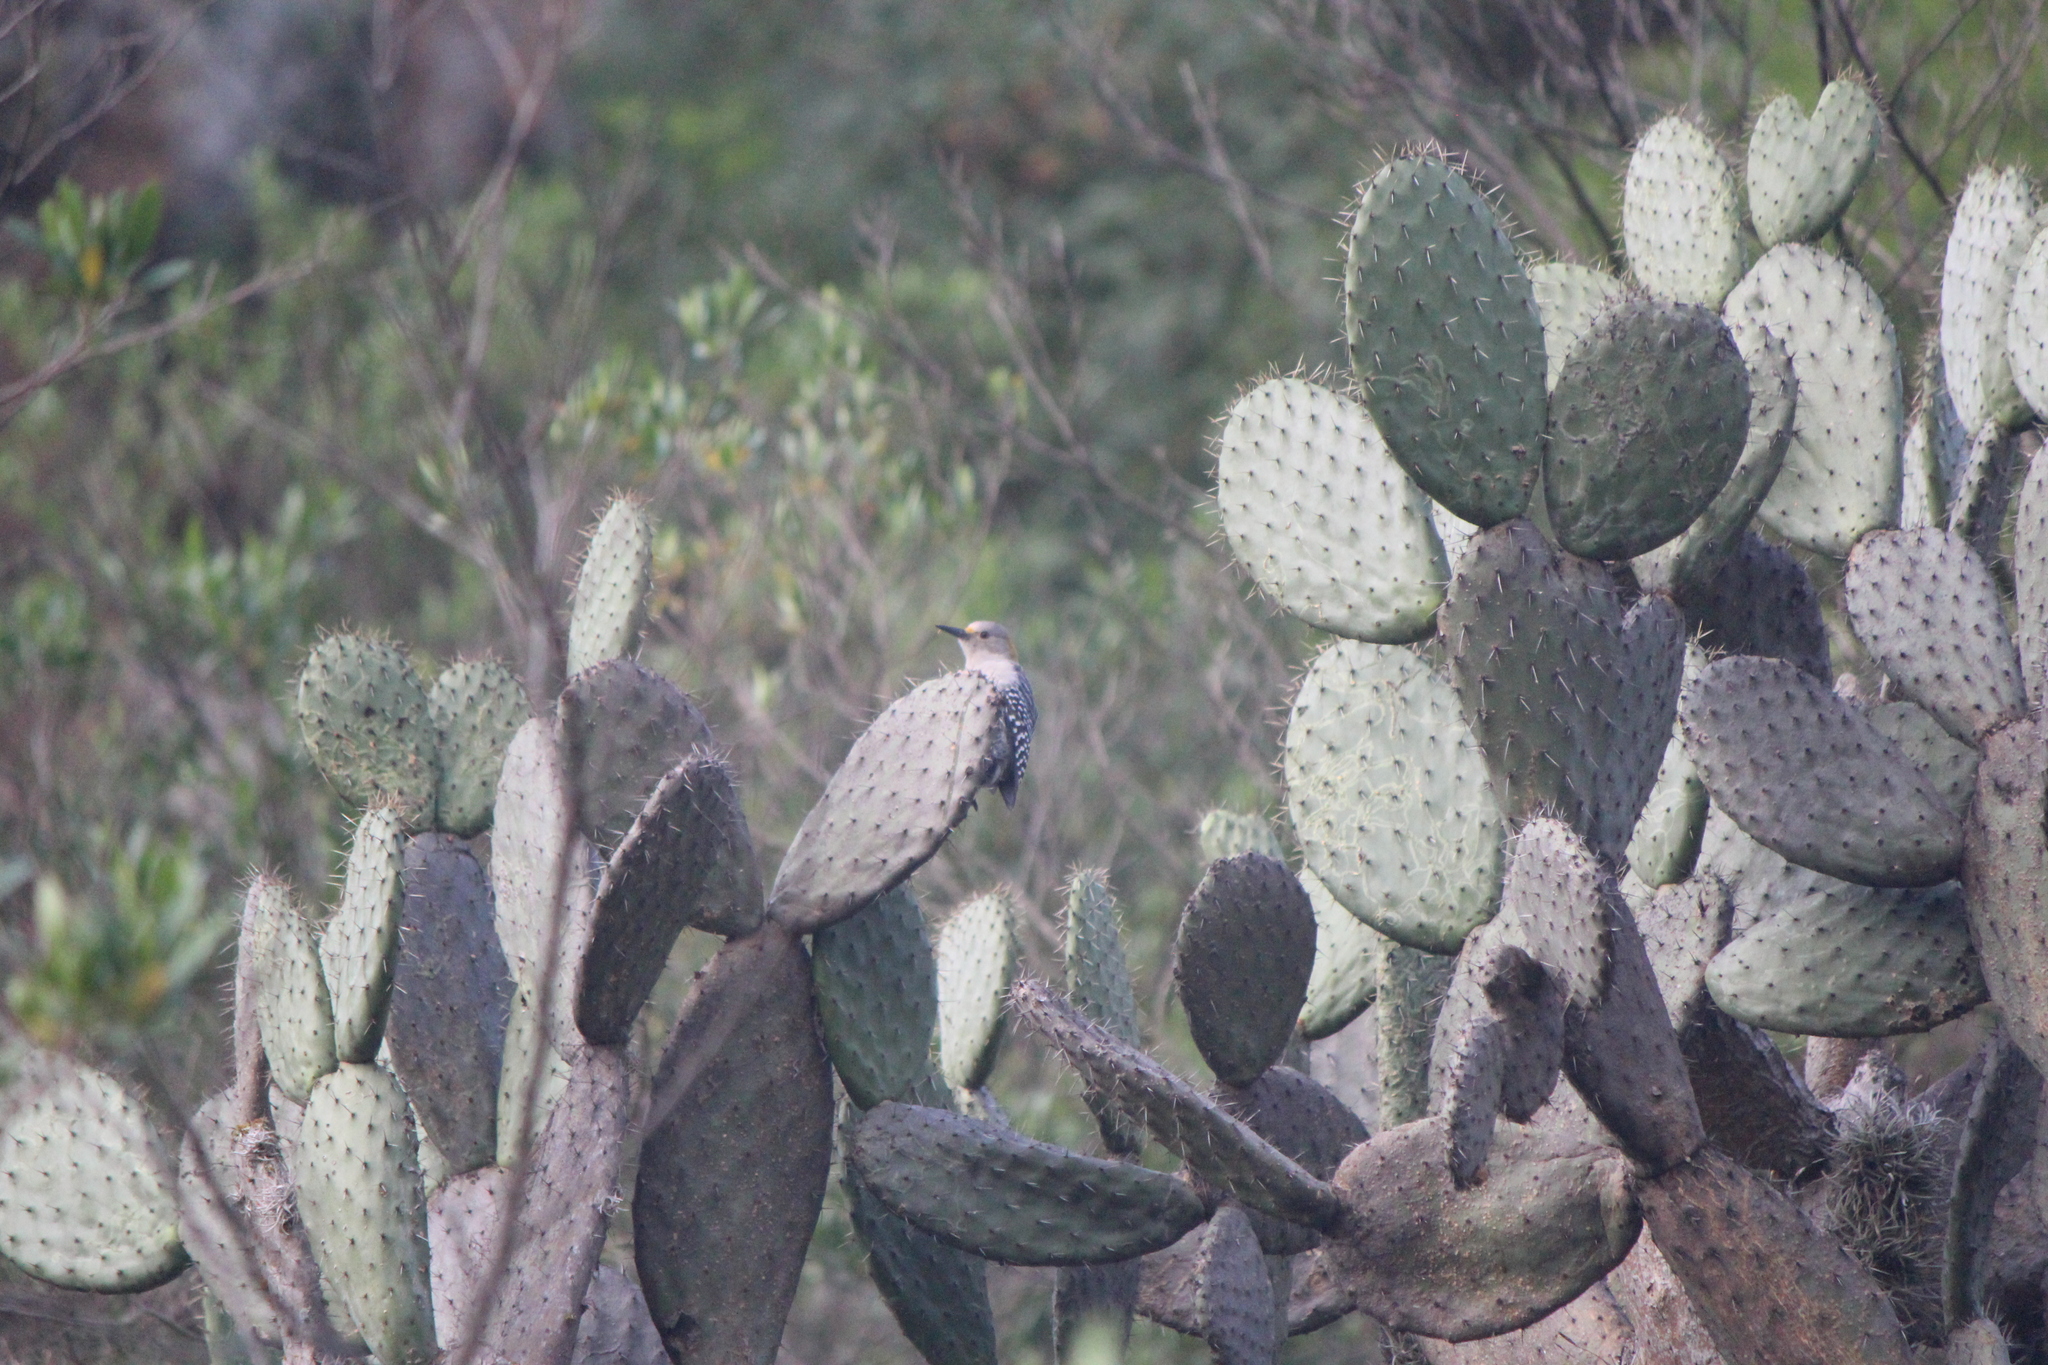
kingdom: Animalia
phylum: Chordata
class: Aves
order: Piciformes
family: Picidae
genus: Melanerpes
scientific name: Melanerpes aurifrons
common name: Golden-fronted woodpecker
